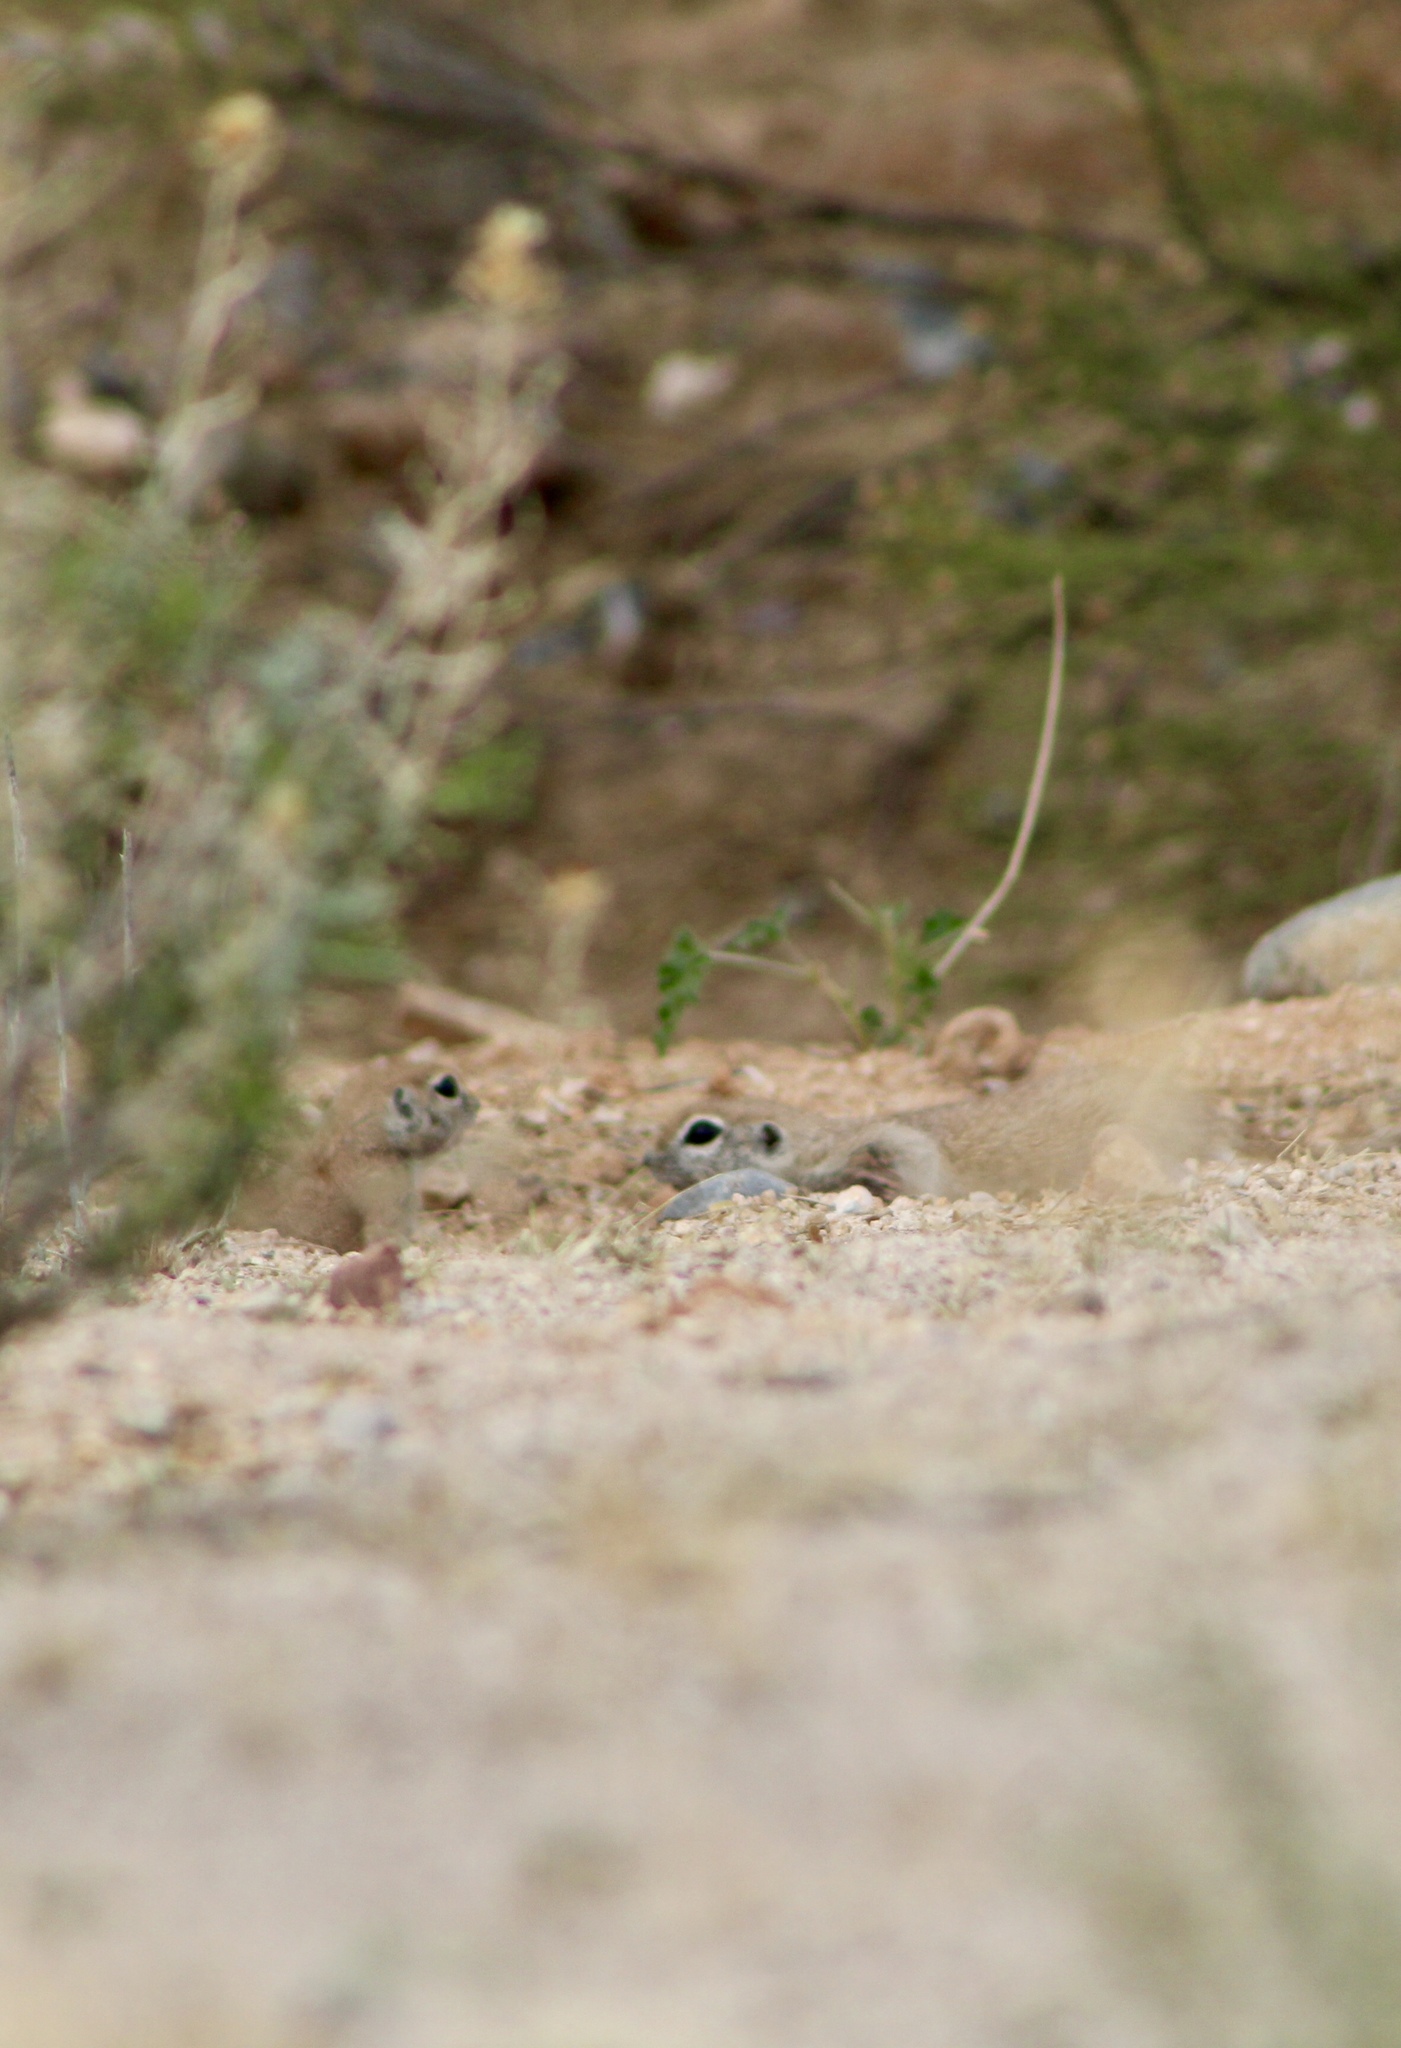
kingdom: Animalia
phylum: Chordata
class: Mammalia
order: Rodentia
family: Sciuridae
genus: Xerospermophilus
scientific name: Xerospermophilus tereticaudus
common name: Round-tailed ground squirrel
